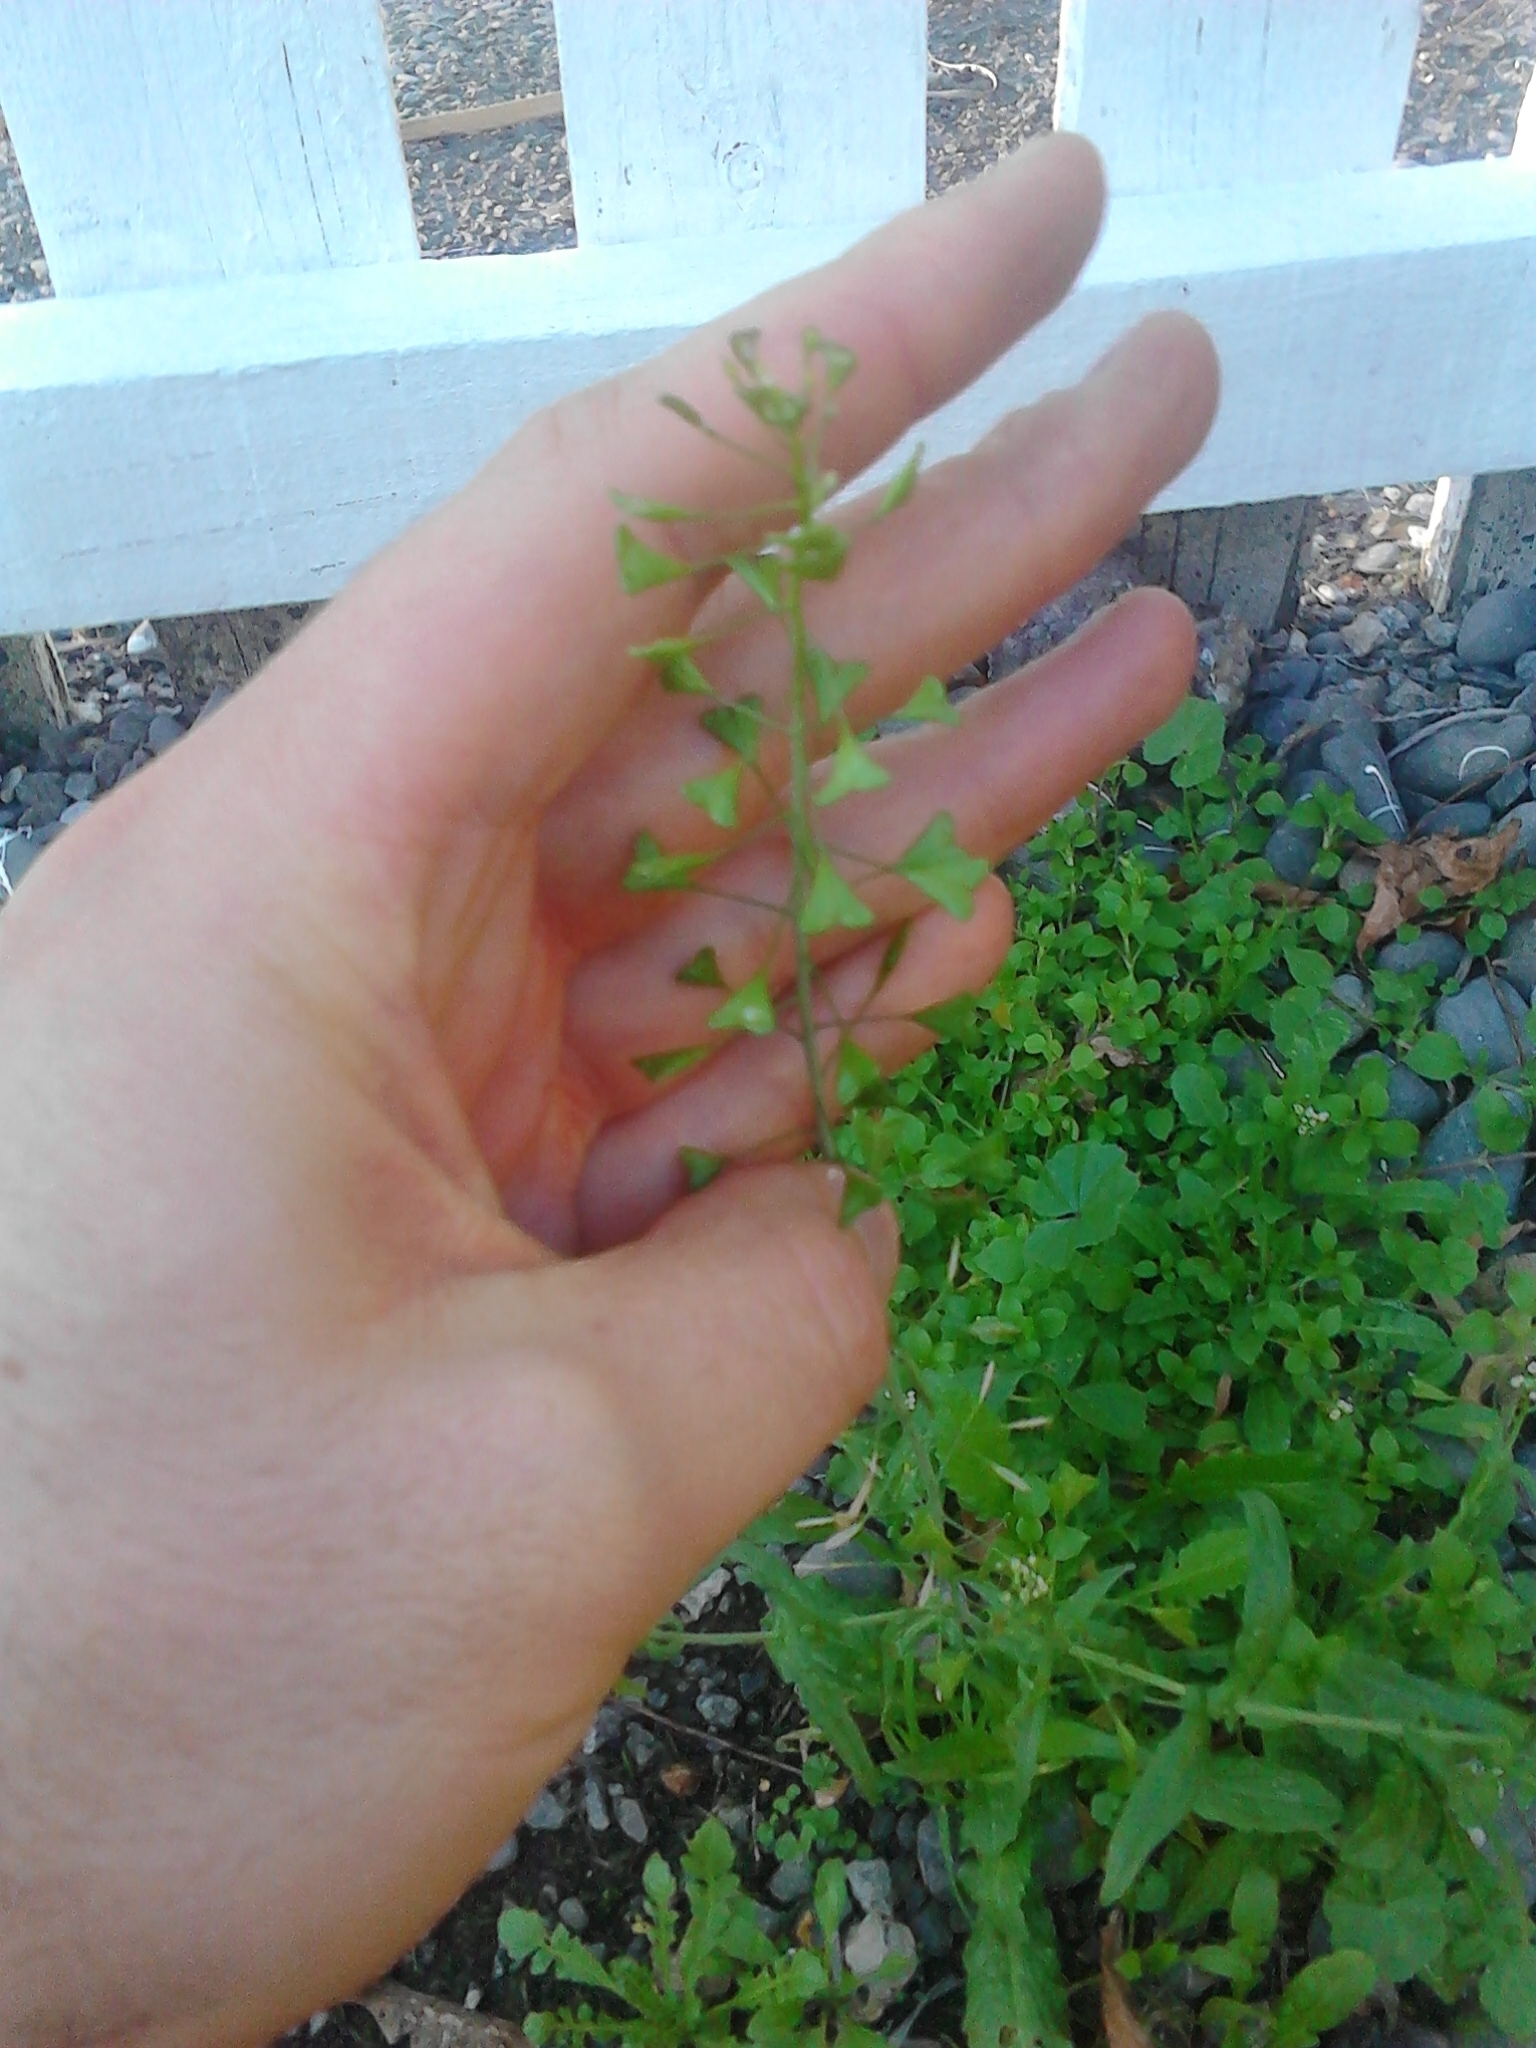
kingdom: Plantae
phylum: Tracheophyta
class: Magnoliopsida
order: Brassicales
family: Brassicaceae
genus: Capsella
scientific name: Capsella bursa-pastoris
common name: Shepherd's purse
